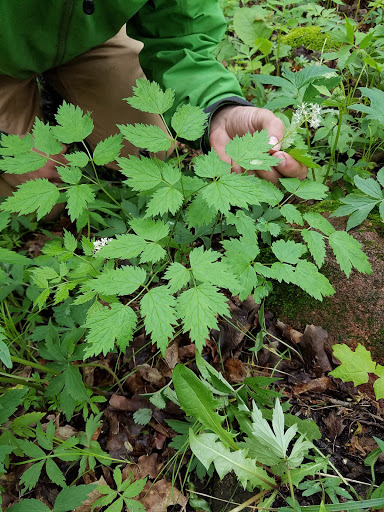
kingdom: Plantae
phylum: Tracheophyta
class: Magnoliopsida
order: Ranunculales
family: Ranunculaceae
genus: Actaea
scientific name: Actaea rubra
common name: Red baneberry
